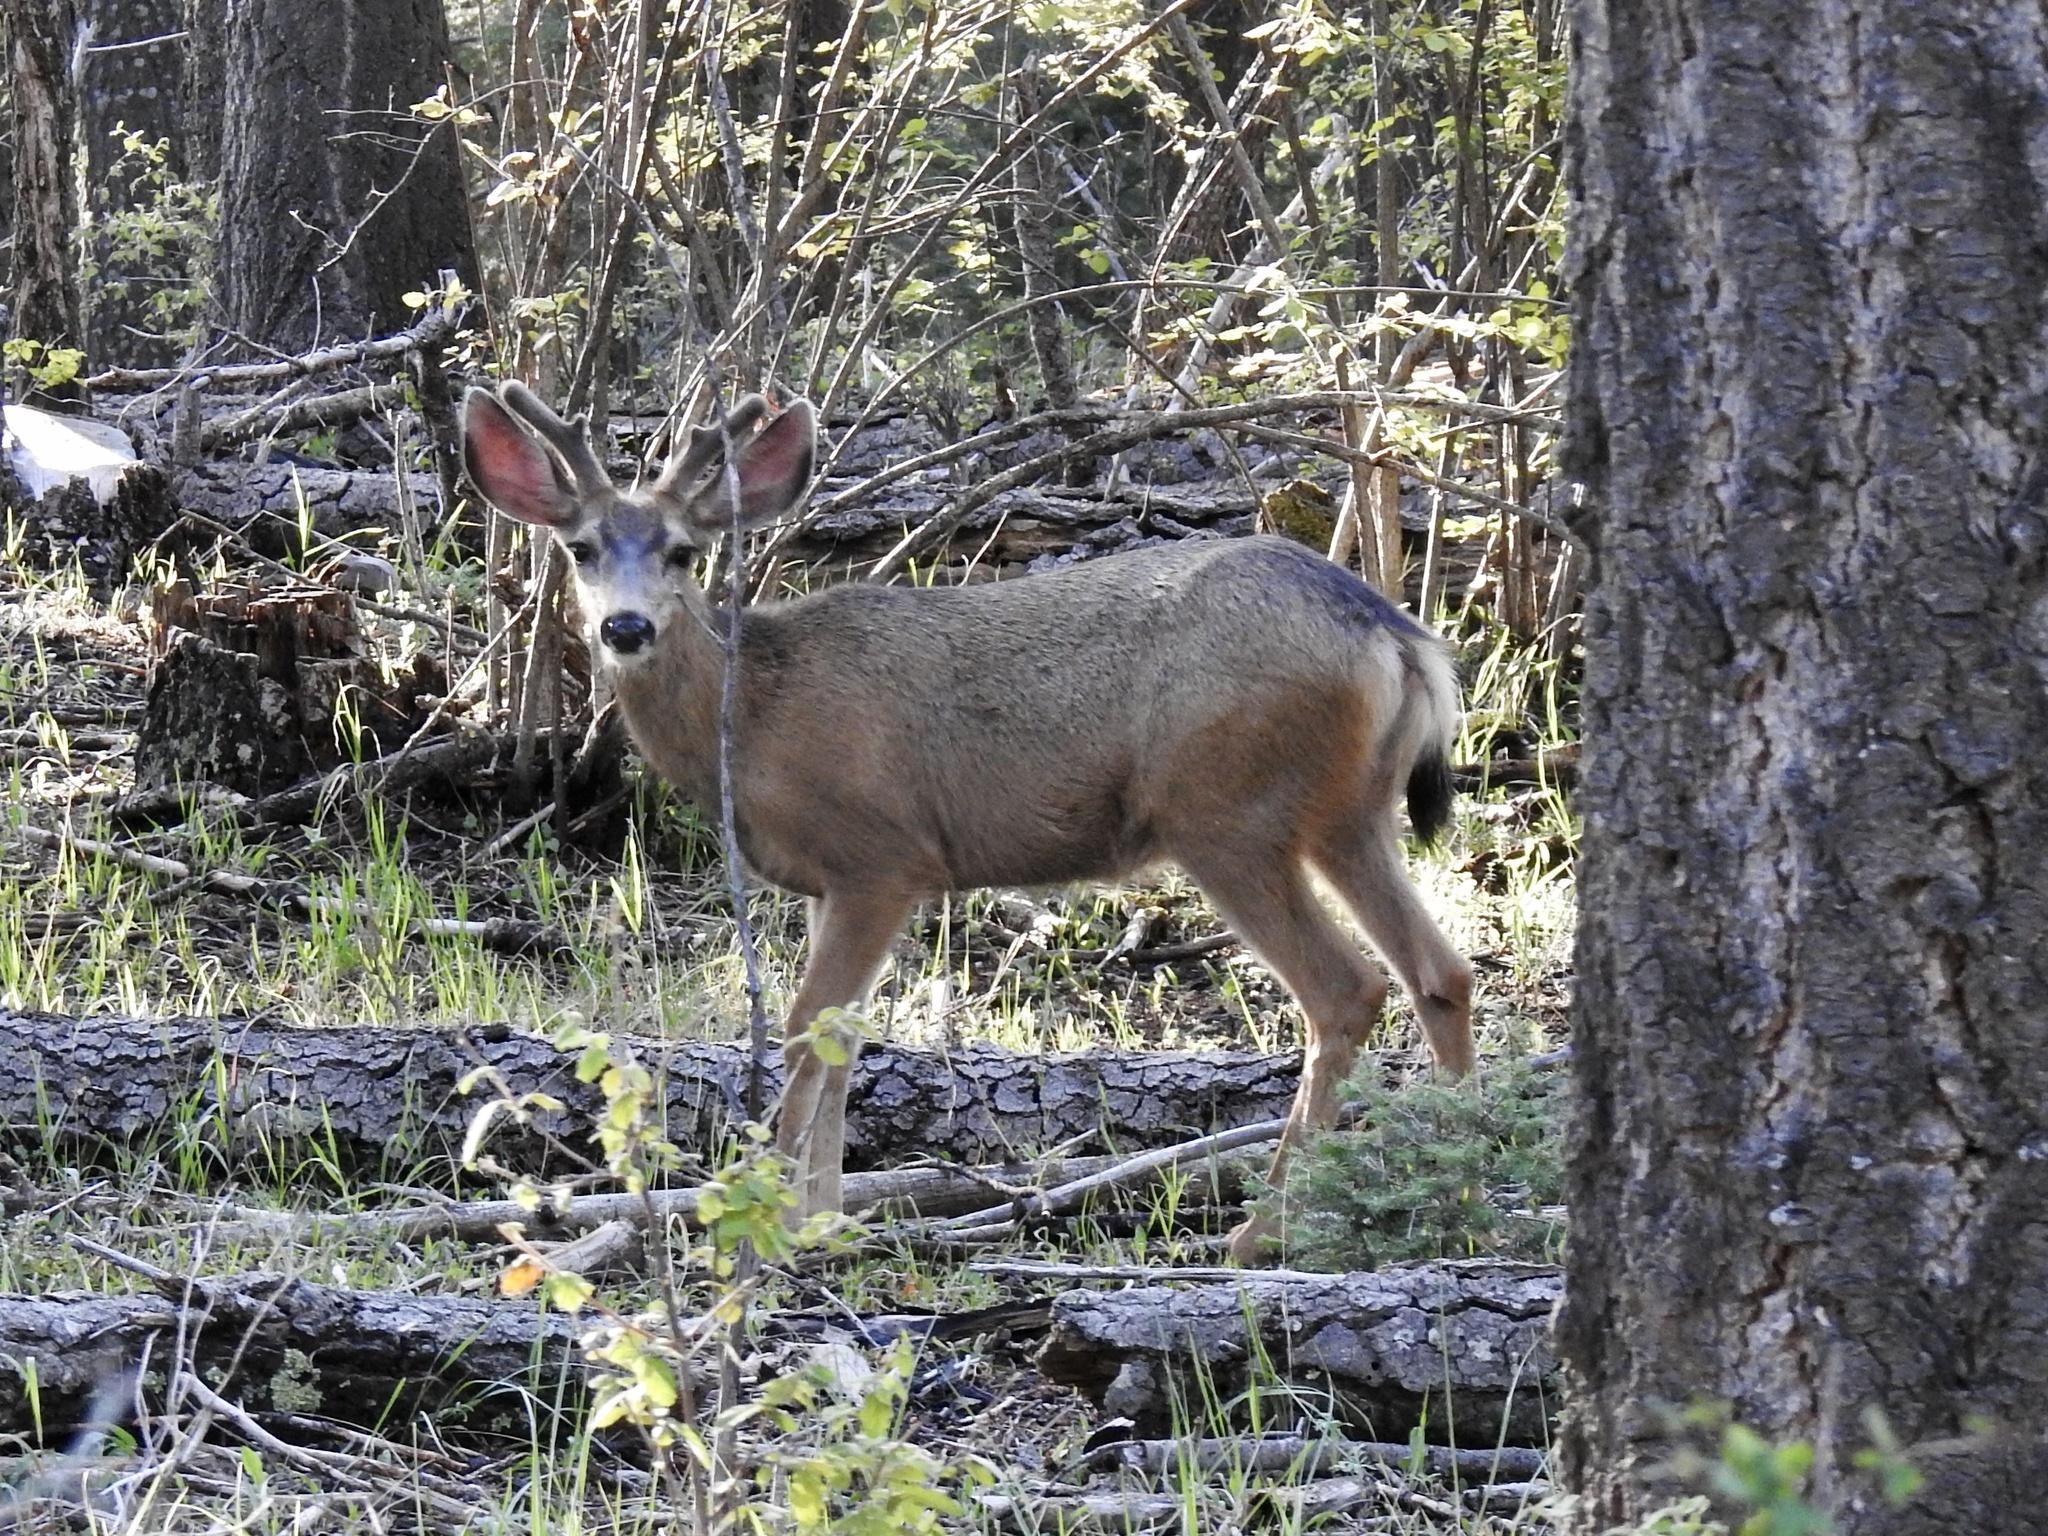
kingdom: Animalia
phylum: Chordata
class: Mammalia
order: Artiodactyla
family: Cervidae
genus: Odocoileus
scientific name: Odocoileus hemionus
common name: Mule deer
